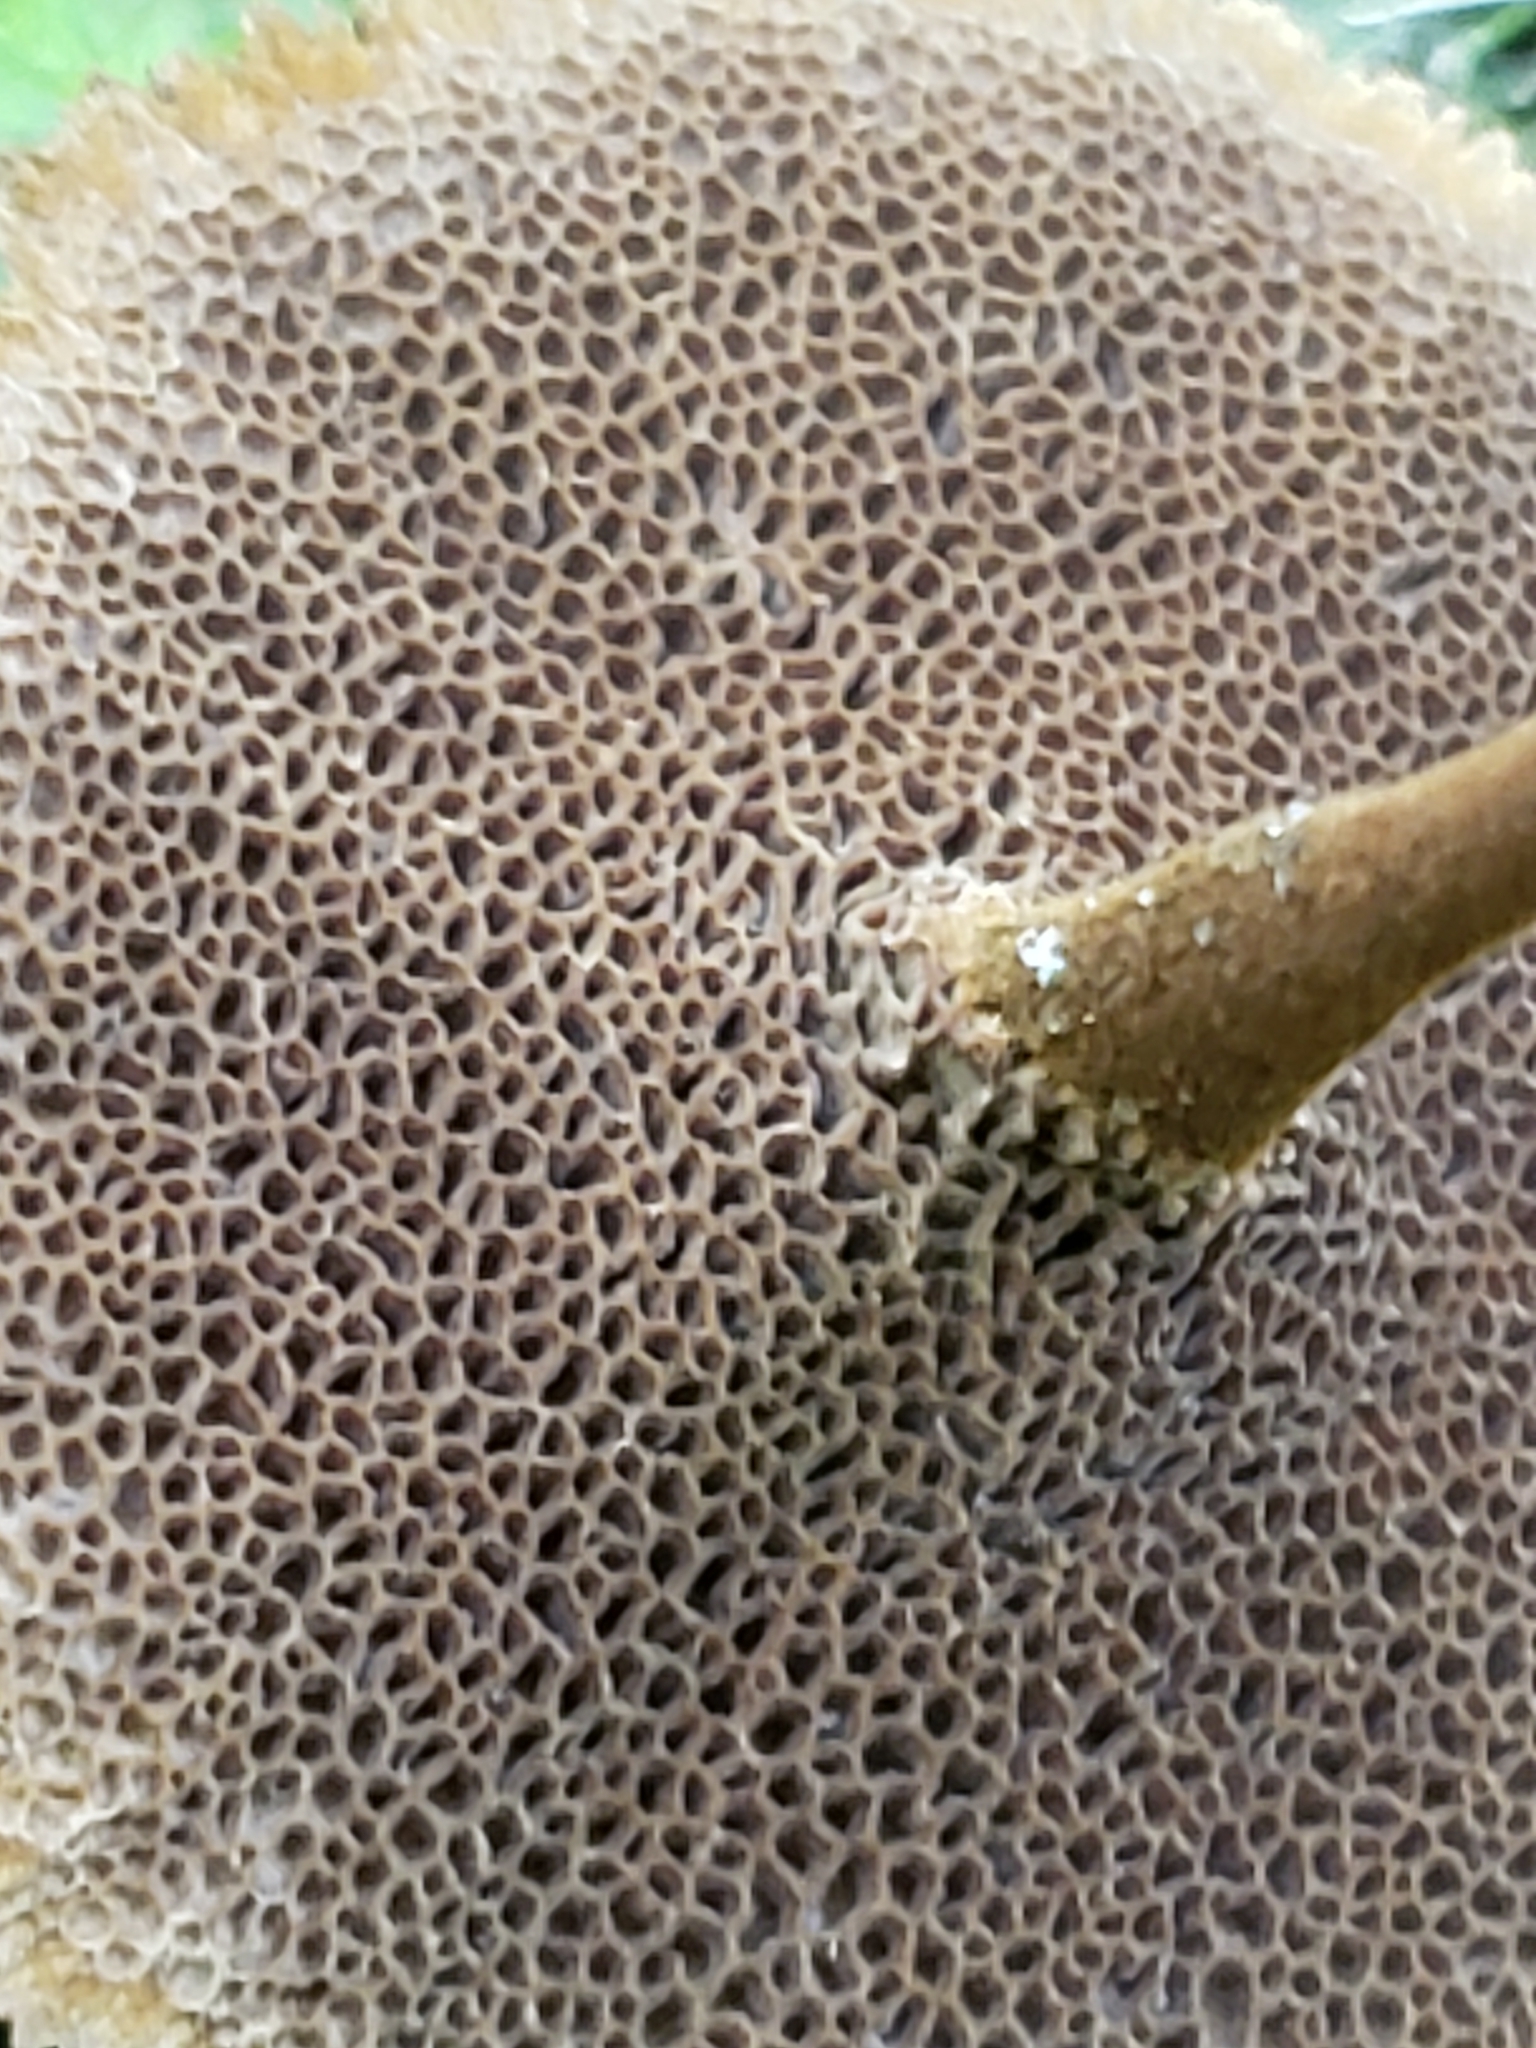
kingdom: Fungi
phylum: Basidiomycota
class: Agaricomycetes
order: Hymenochaetales
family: Hymenochaetaceae
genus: Coltricia
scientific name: Coltricia cinnamomea
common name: Shiny cinnamon polypore
